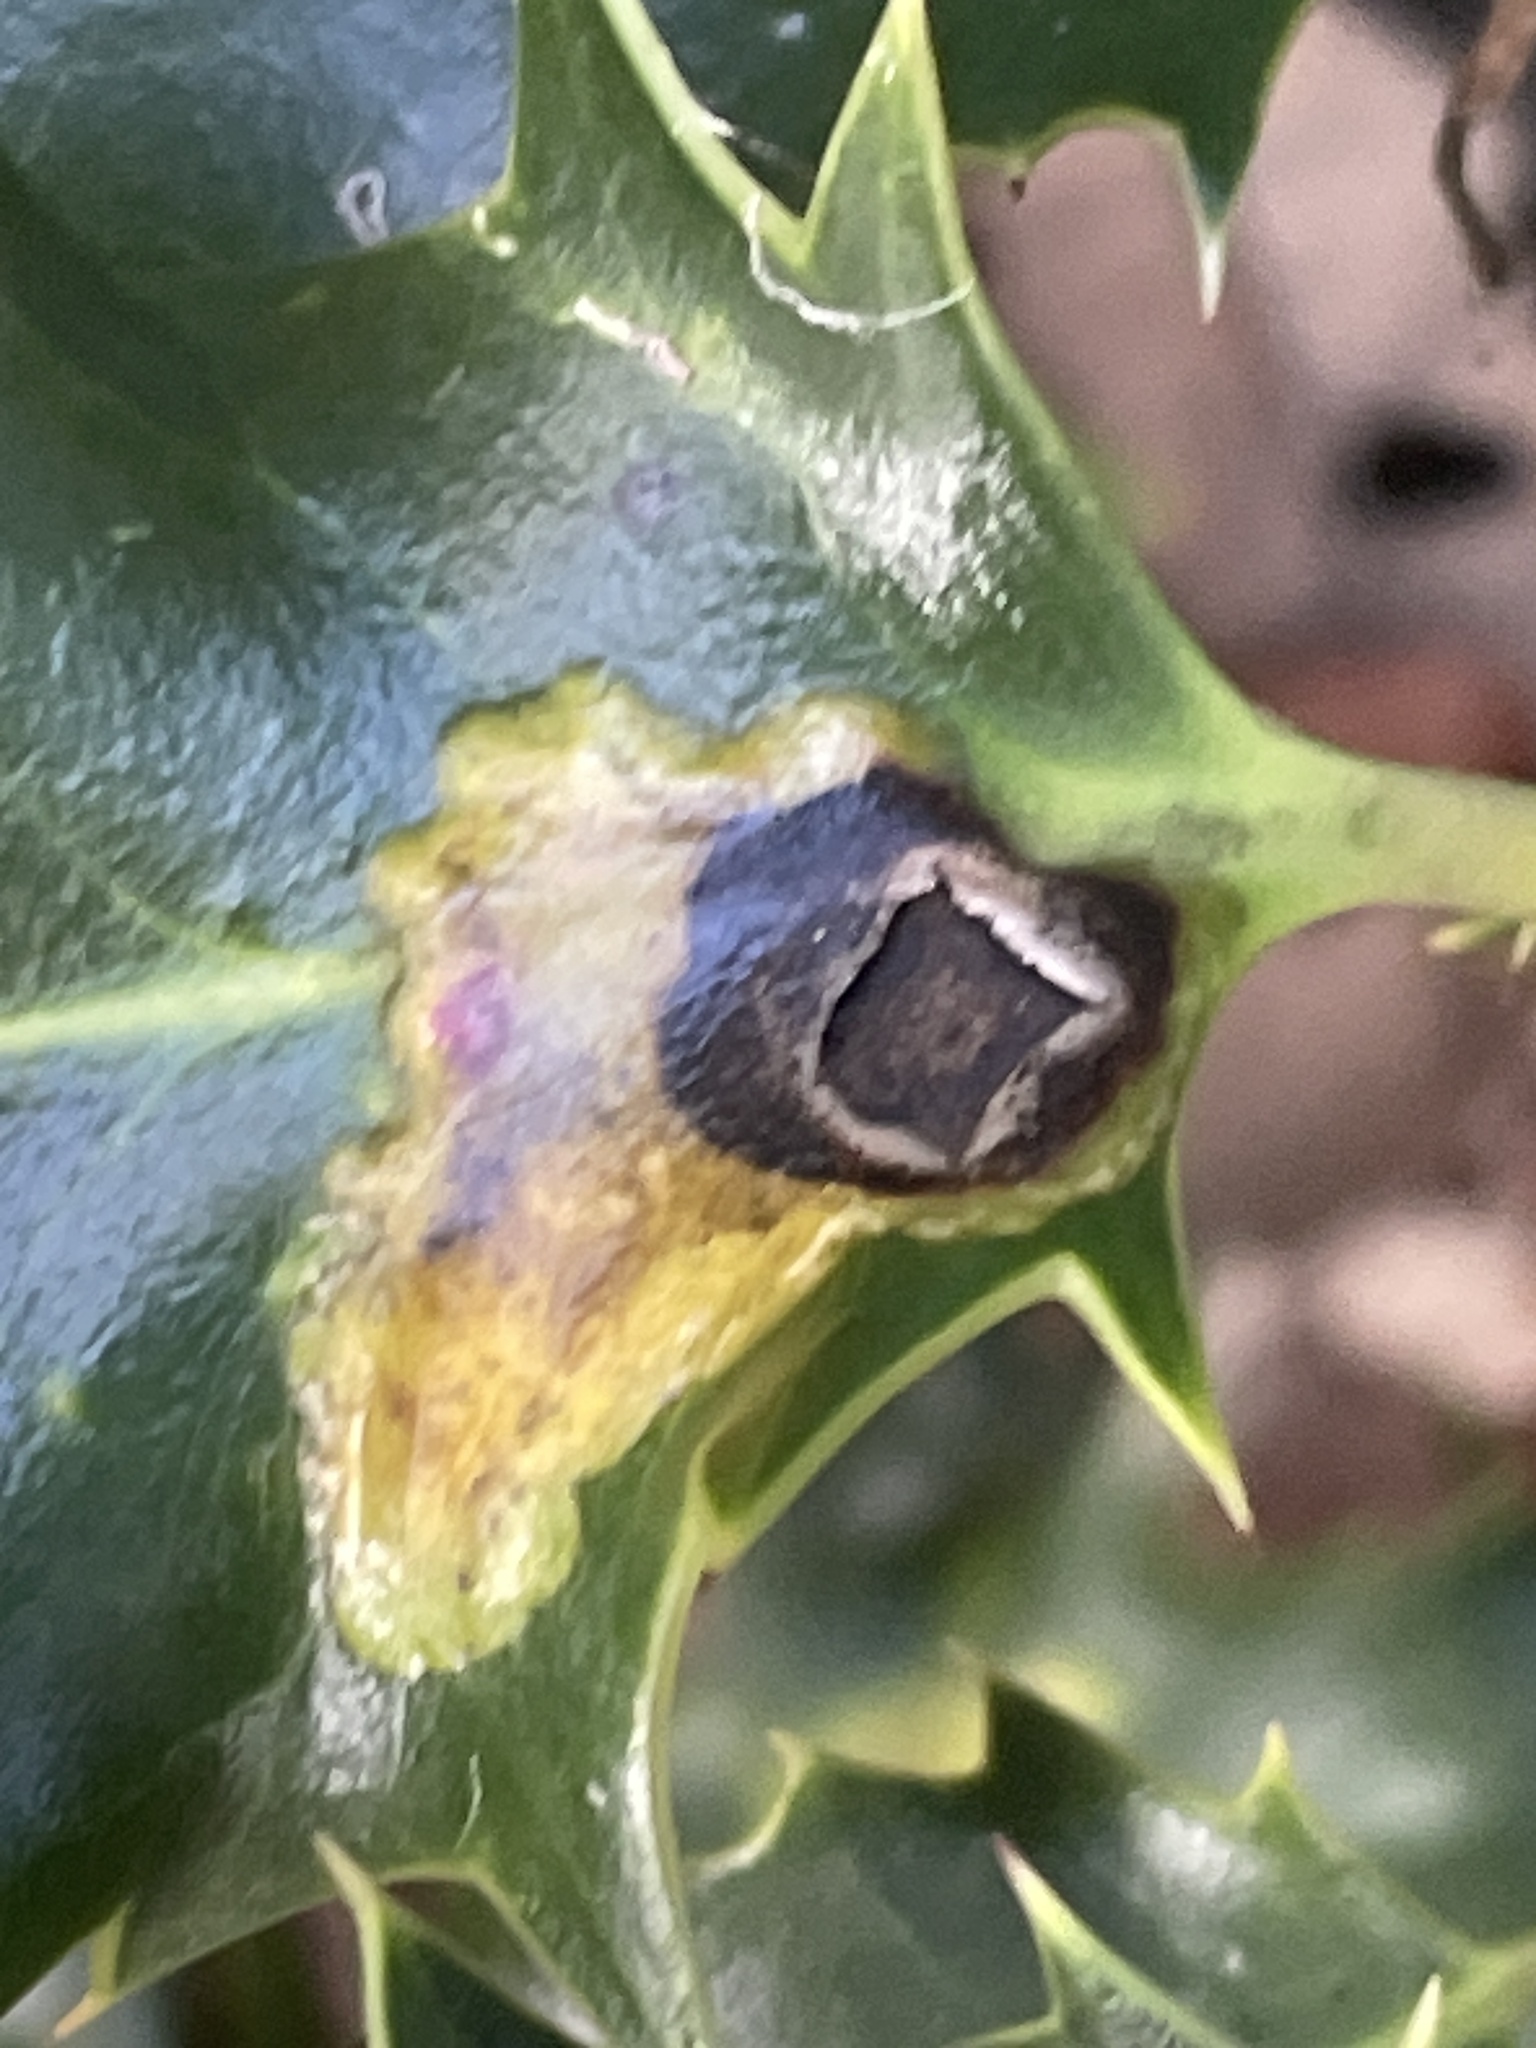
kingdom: Animalia
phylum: Arthropoda
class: Insecta
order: Diptera
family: Agromyzidae
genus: Phytomyza
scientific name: Phytomyza ilicis
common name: Holly leafminer
